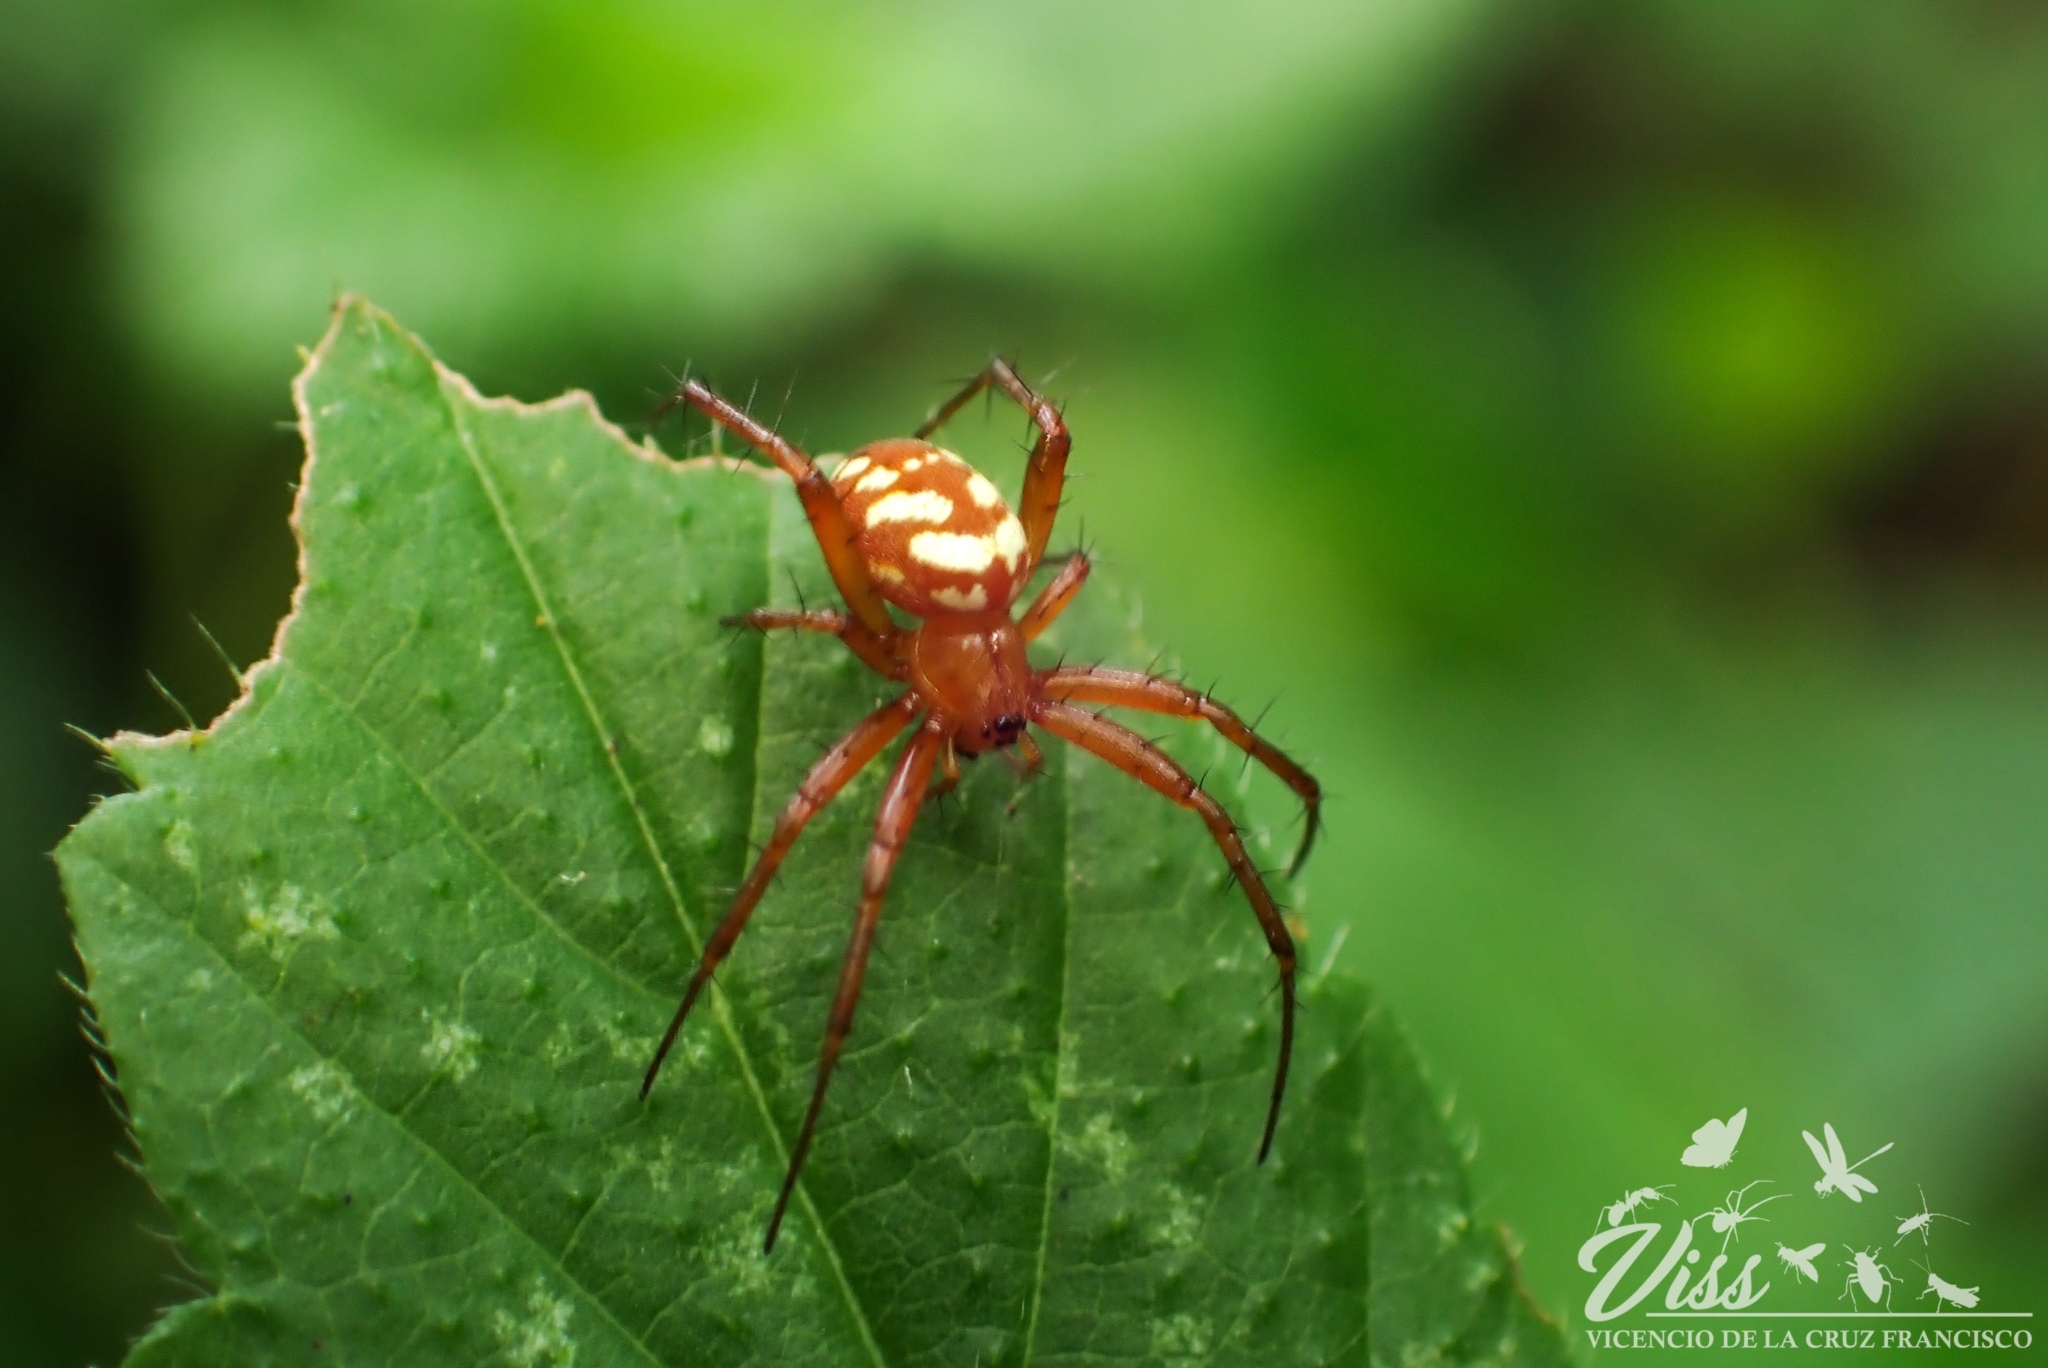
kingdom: Animalia
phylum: Arthropoda
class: Arachnida
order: Araneae
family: Araneidae
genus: Mangora
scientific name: Mangora
